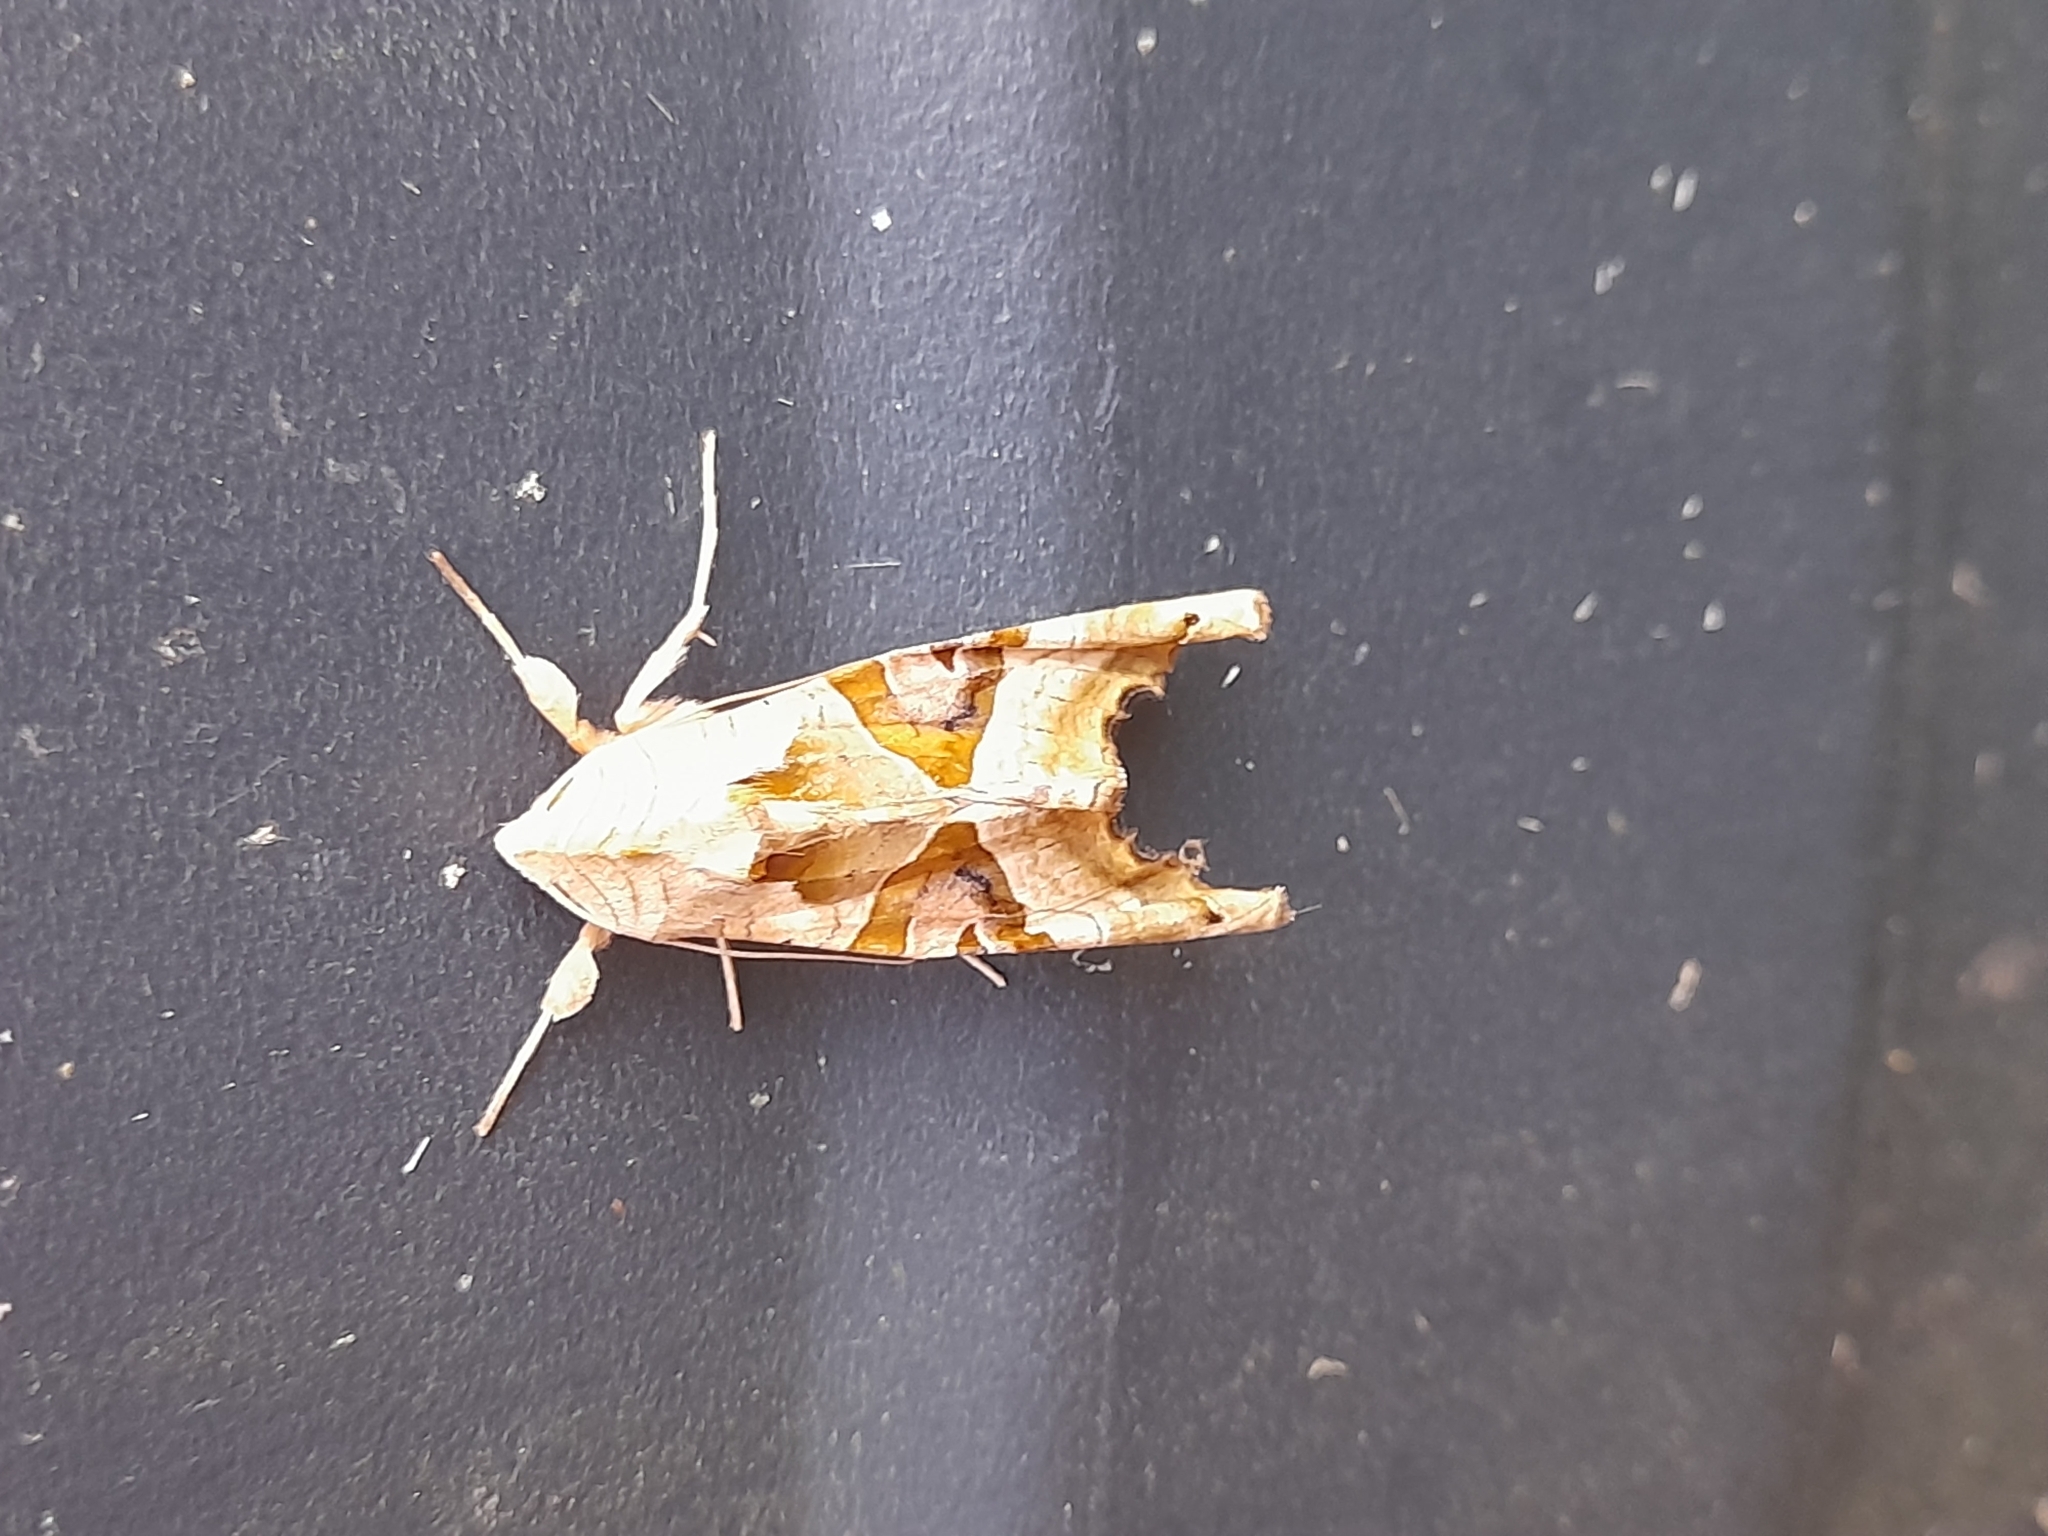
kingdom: Animalia
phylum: Arthropoda
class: Insecta
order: Lepidoptera
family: Noctuidae
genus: Phlogophora
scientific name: Phlogophora meticulosa
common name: Angle shades
